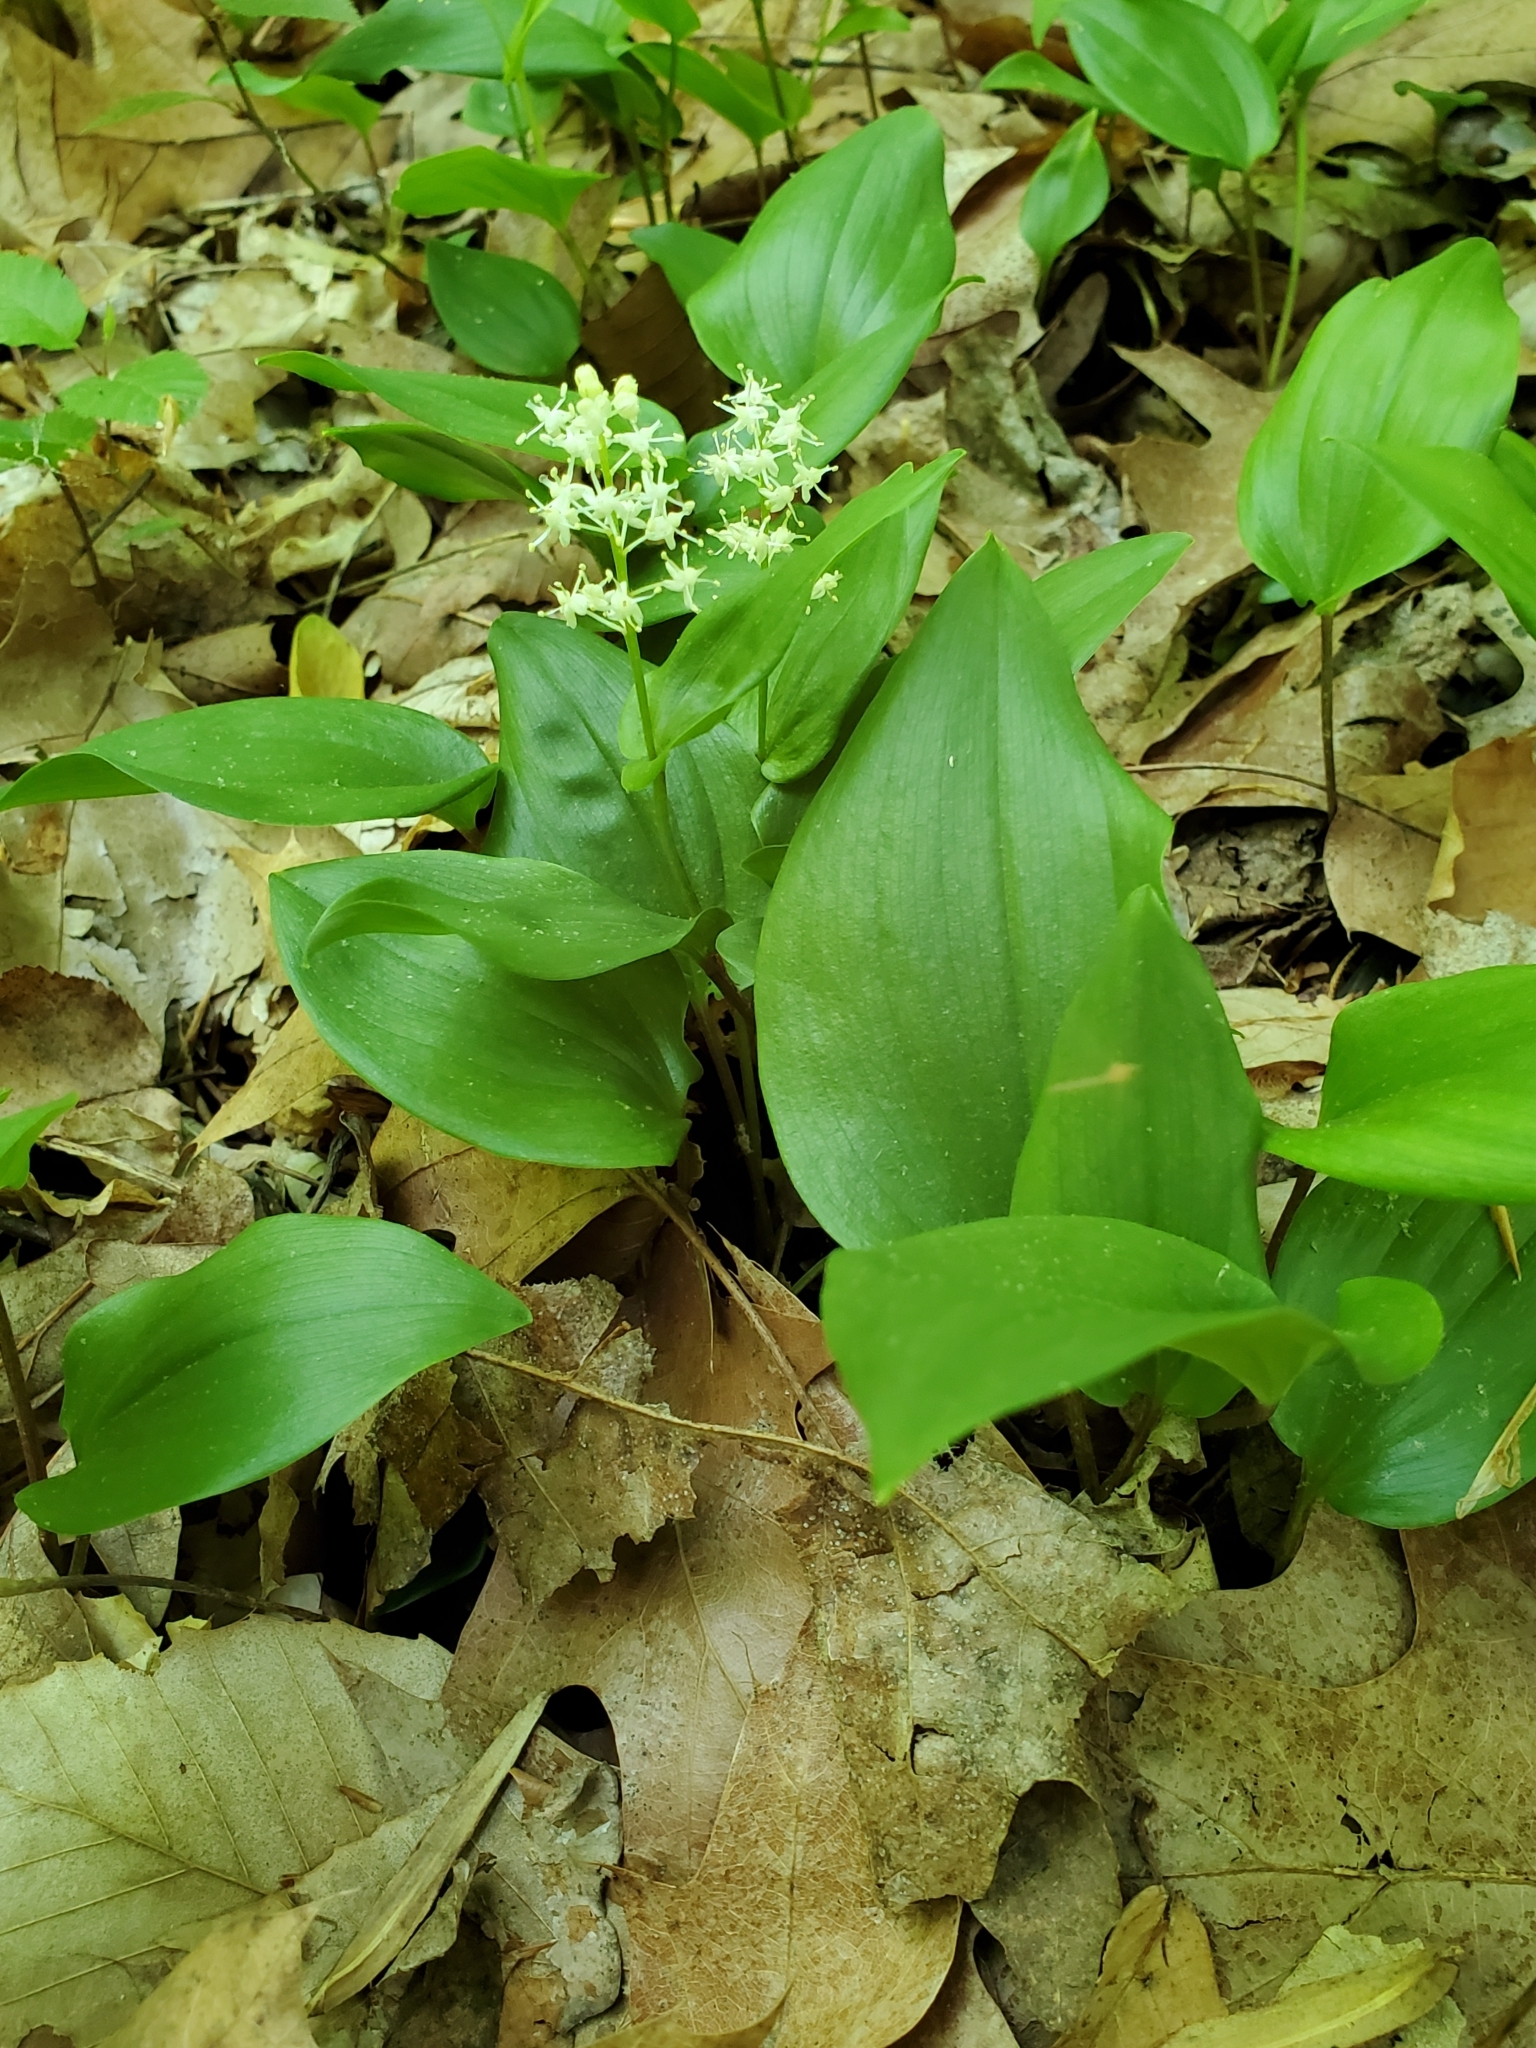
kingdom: Plantae
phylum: Tracheophyta
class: Liliopsida
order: Asparagales
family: Asparagaceae
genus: Maianthemum
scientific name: Maianthemum canadense
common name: False lily-of-the-valley
